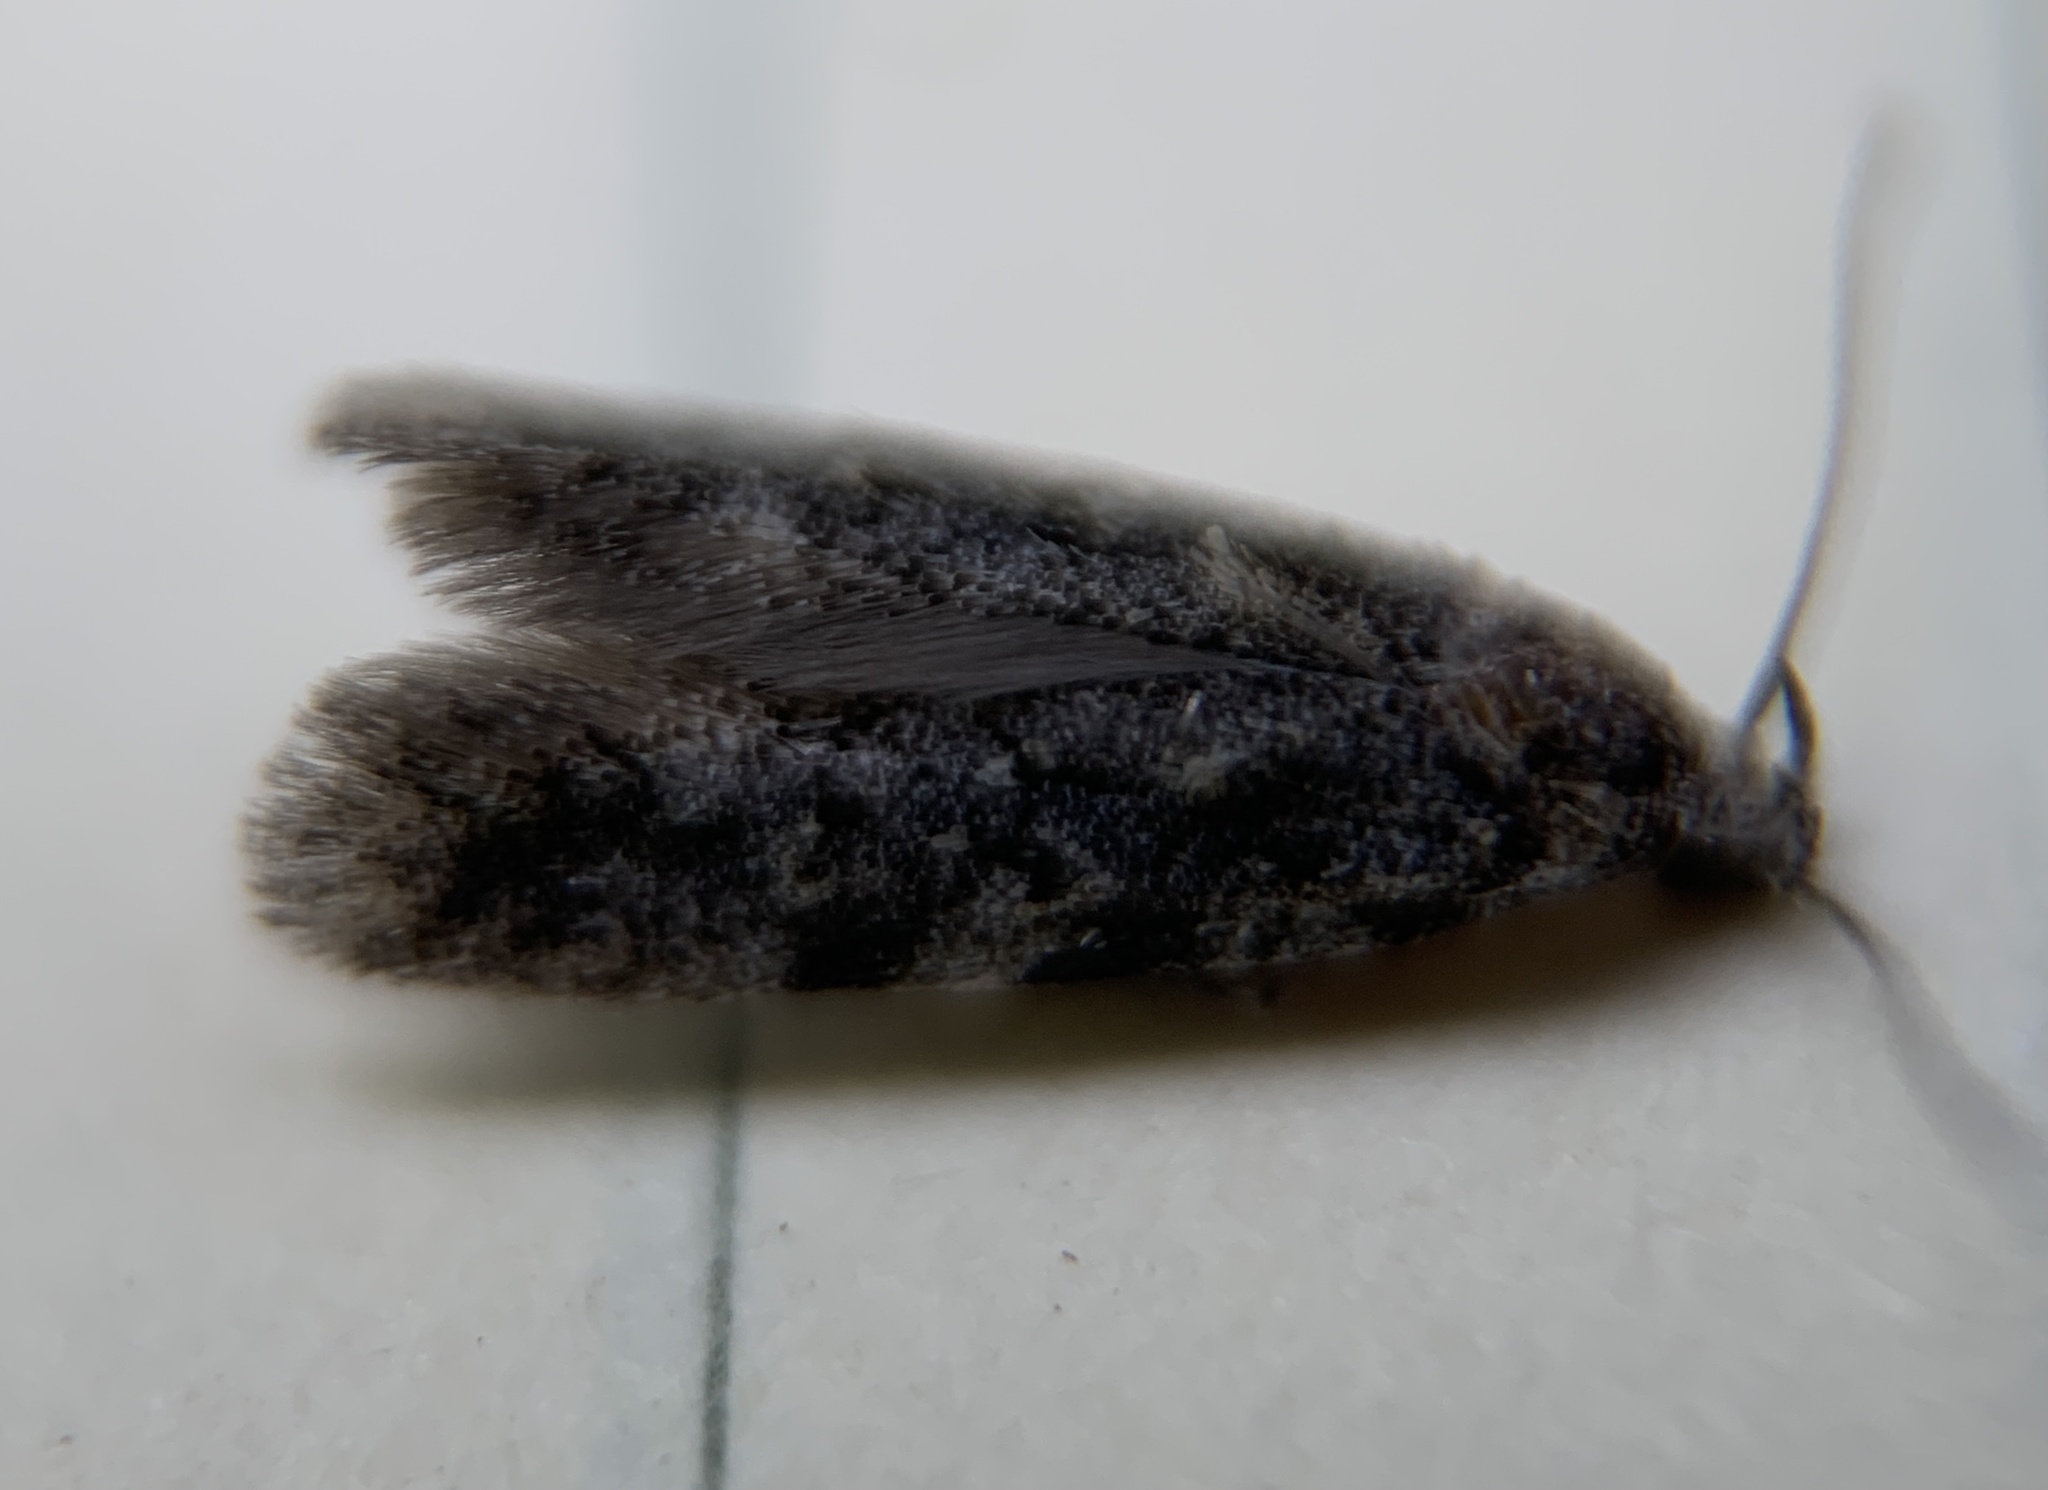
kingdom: Animalia
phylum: Arthropoda
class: Insecta
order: Lepidoptera
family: Gelechiidae
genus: Xenolechia
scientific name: Xenolechia ontariensis
